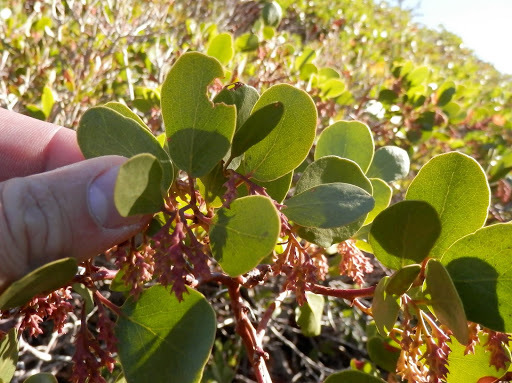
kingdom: Plantae
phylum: Tracheophyta
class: Magnoliopsida
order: Ericales
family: Ericaceae
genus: Arctostaphylos
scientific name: Arctostaphylos patula
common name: Green-leaf manzanita
